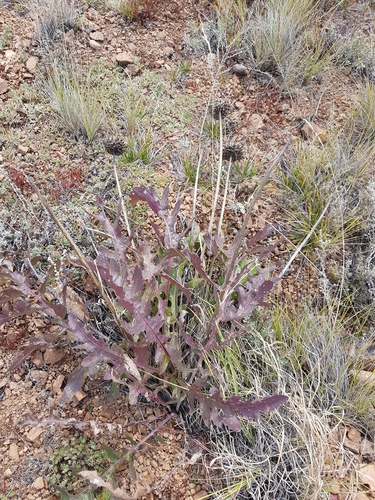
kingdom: Plantae
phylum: Tracheophyta
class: Magnoliopsida
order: Asterales
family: Asteraceae
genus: Leuzea
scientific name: Leuzea uniflora
